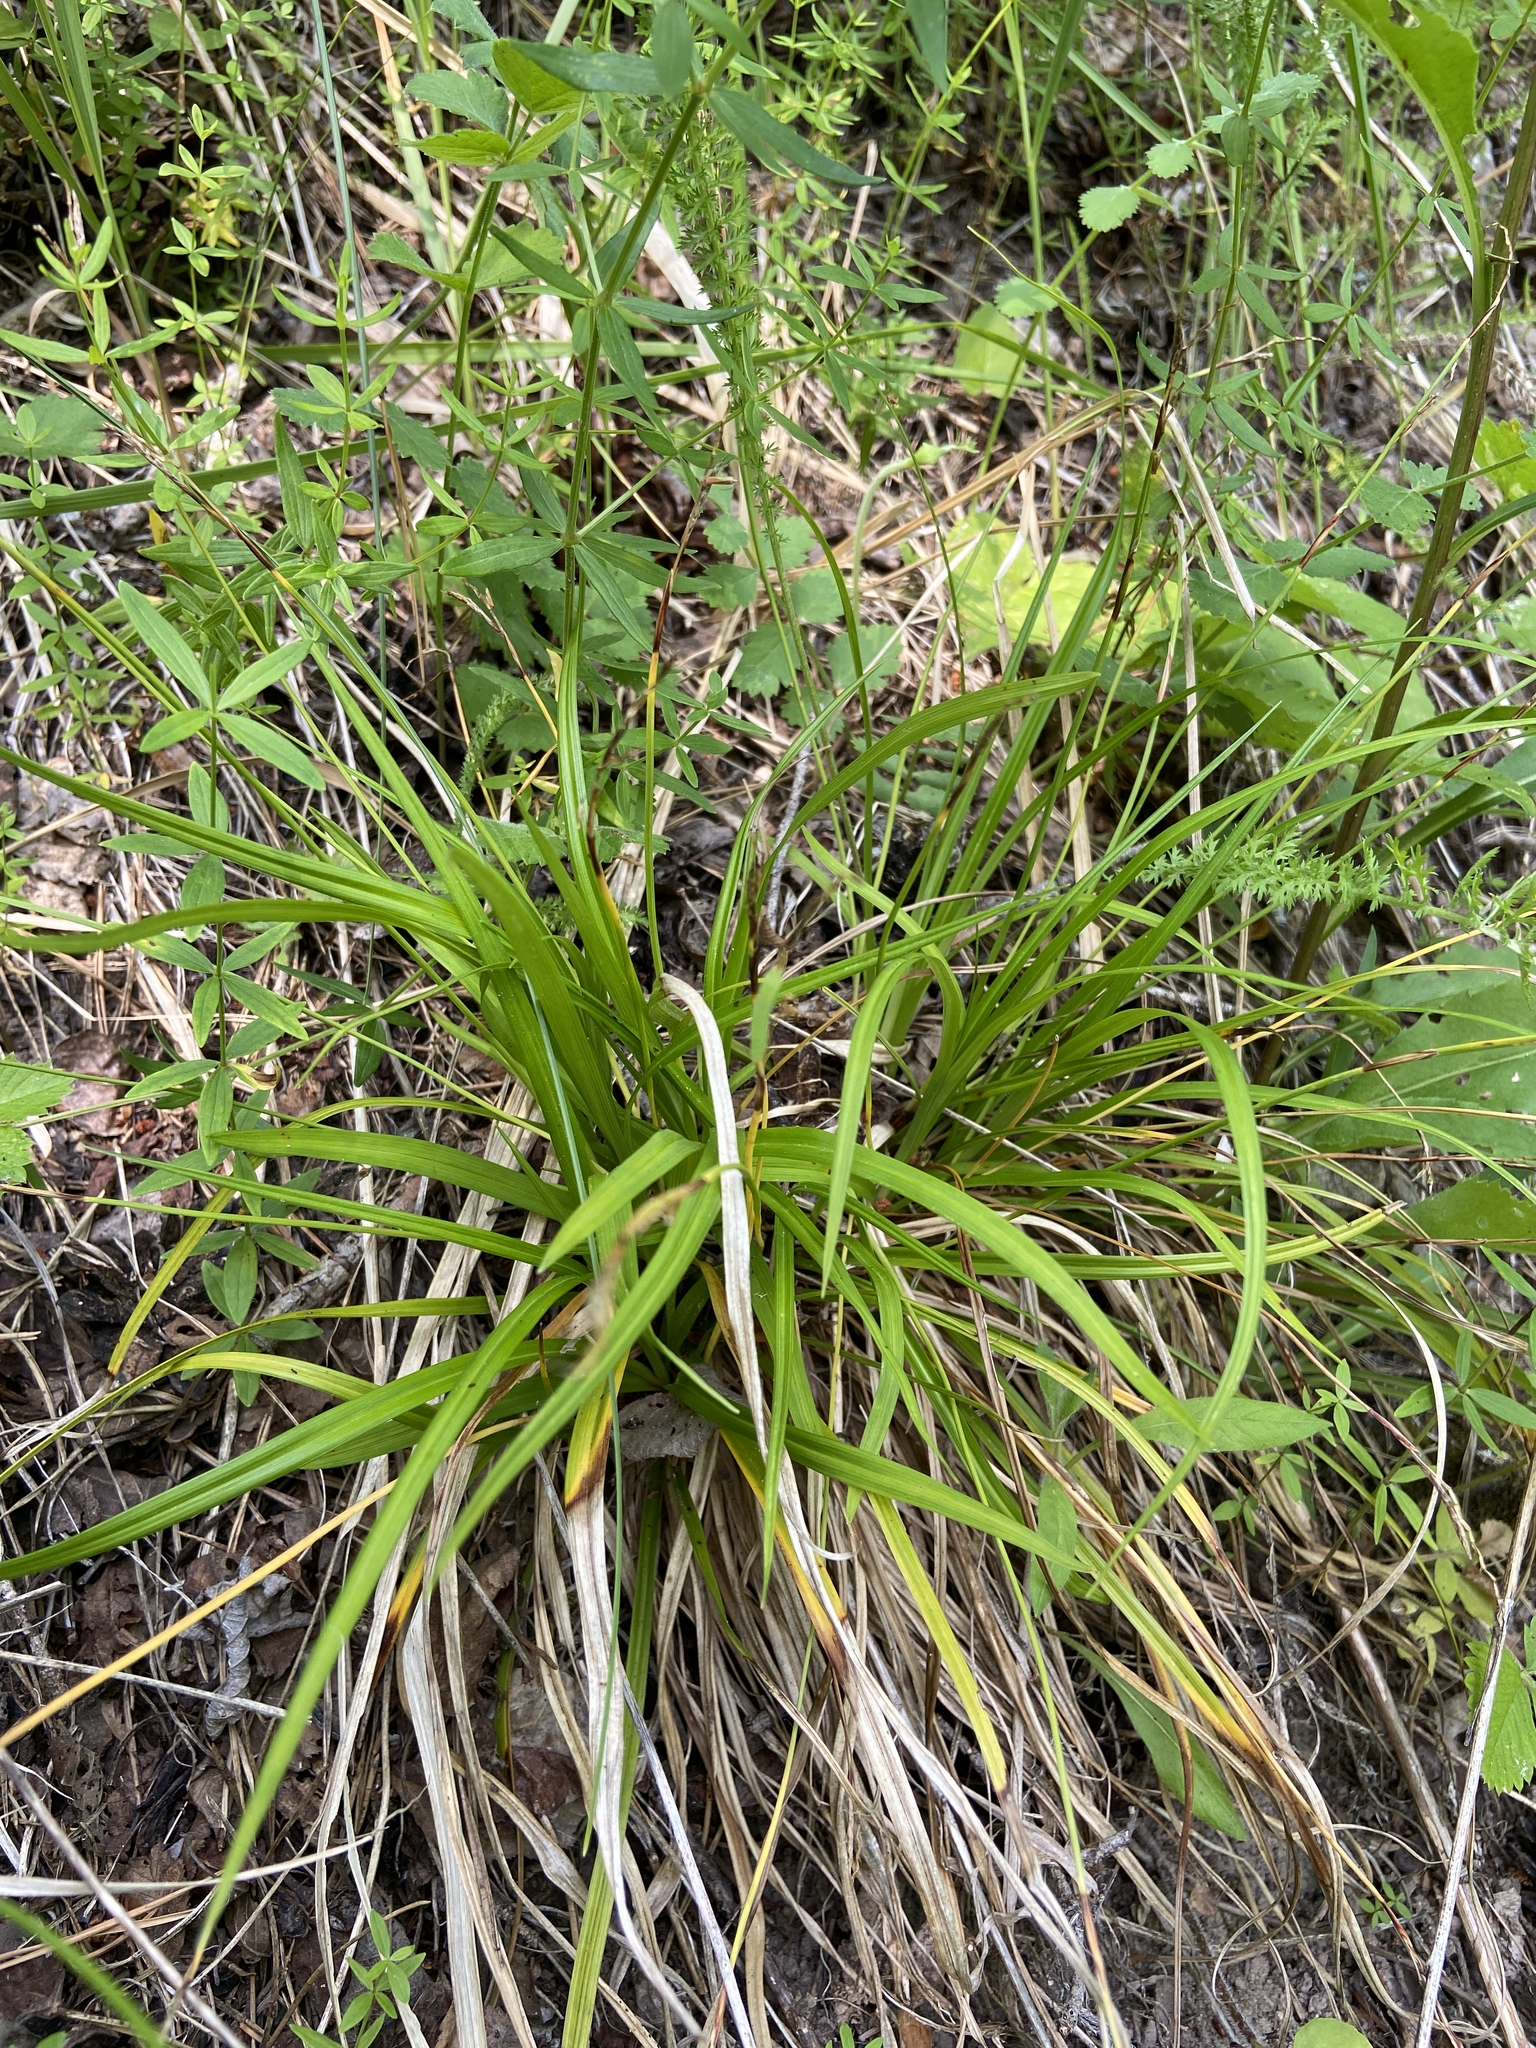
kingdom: Plantae
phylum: Tracheophyta
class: Liliopsida
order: Poales
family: Cyperaceae
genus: Carex
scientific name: Carex digitata
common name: Fingered sedge
